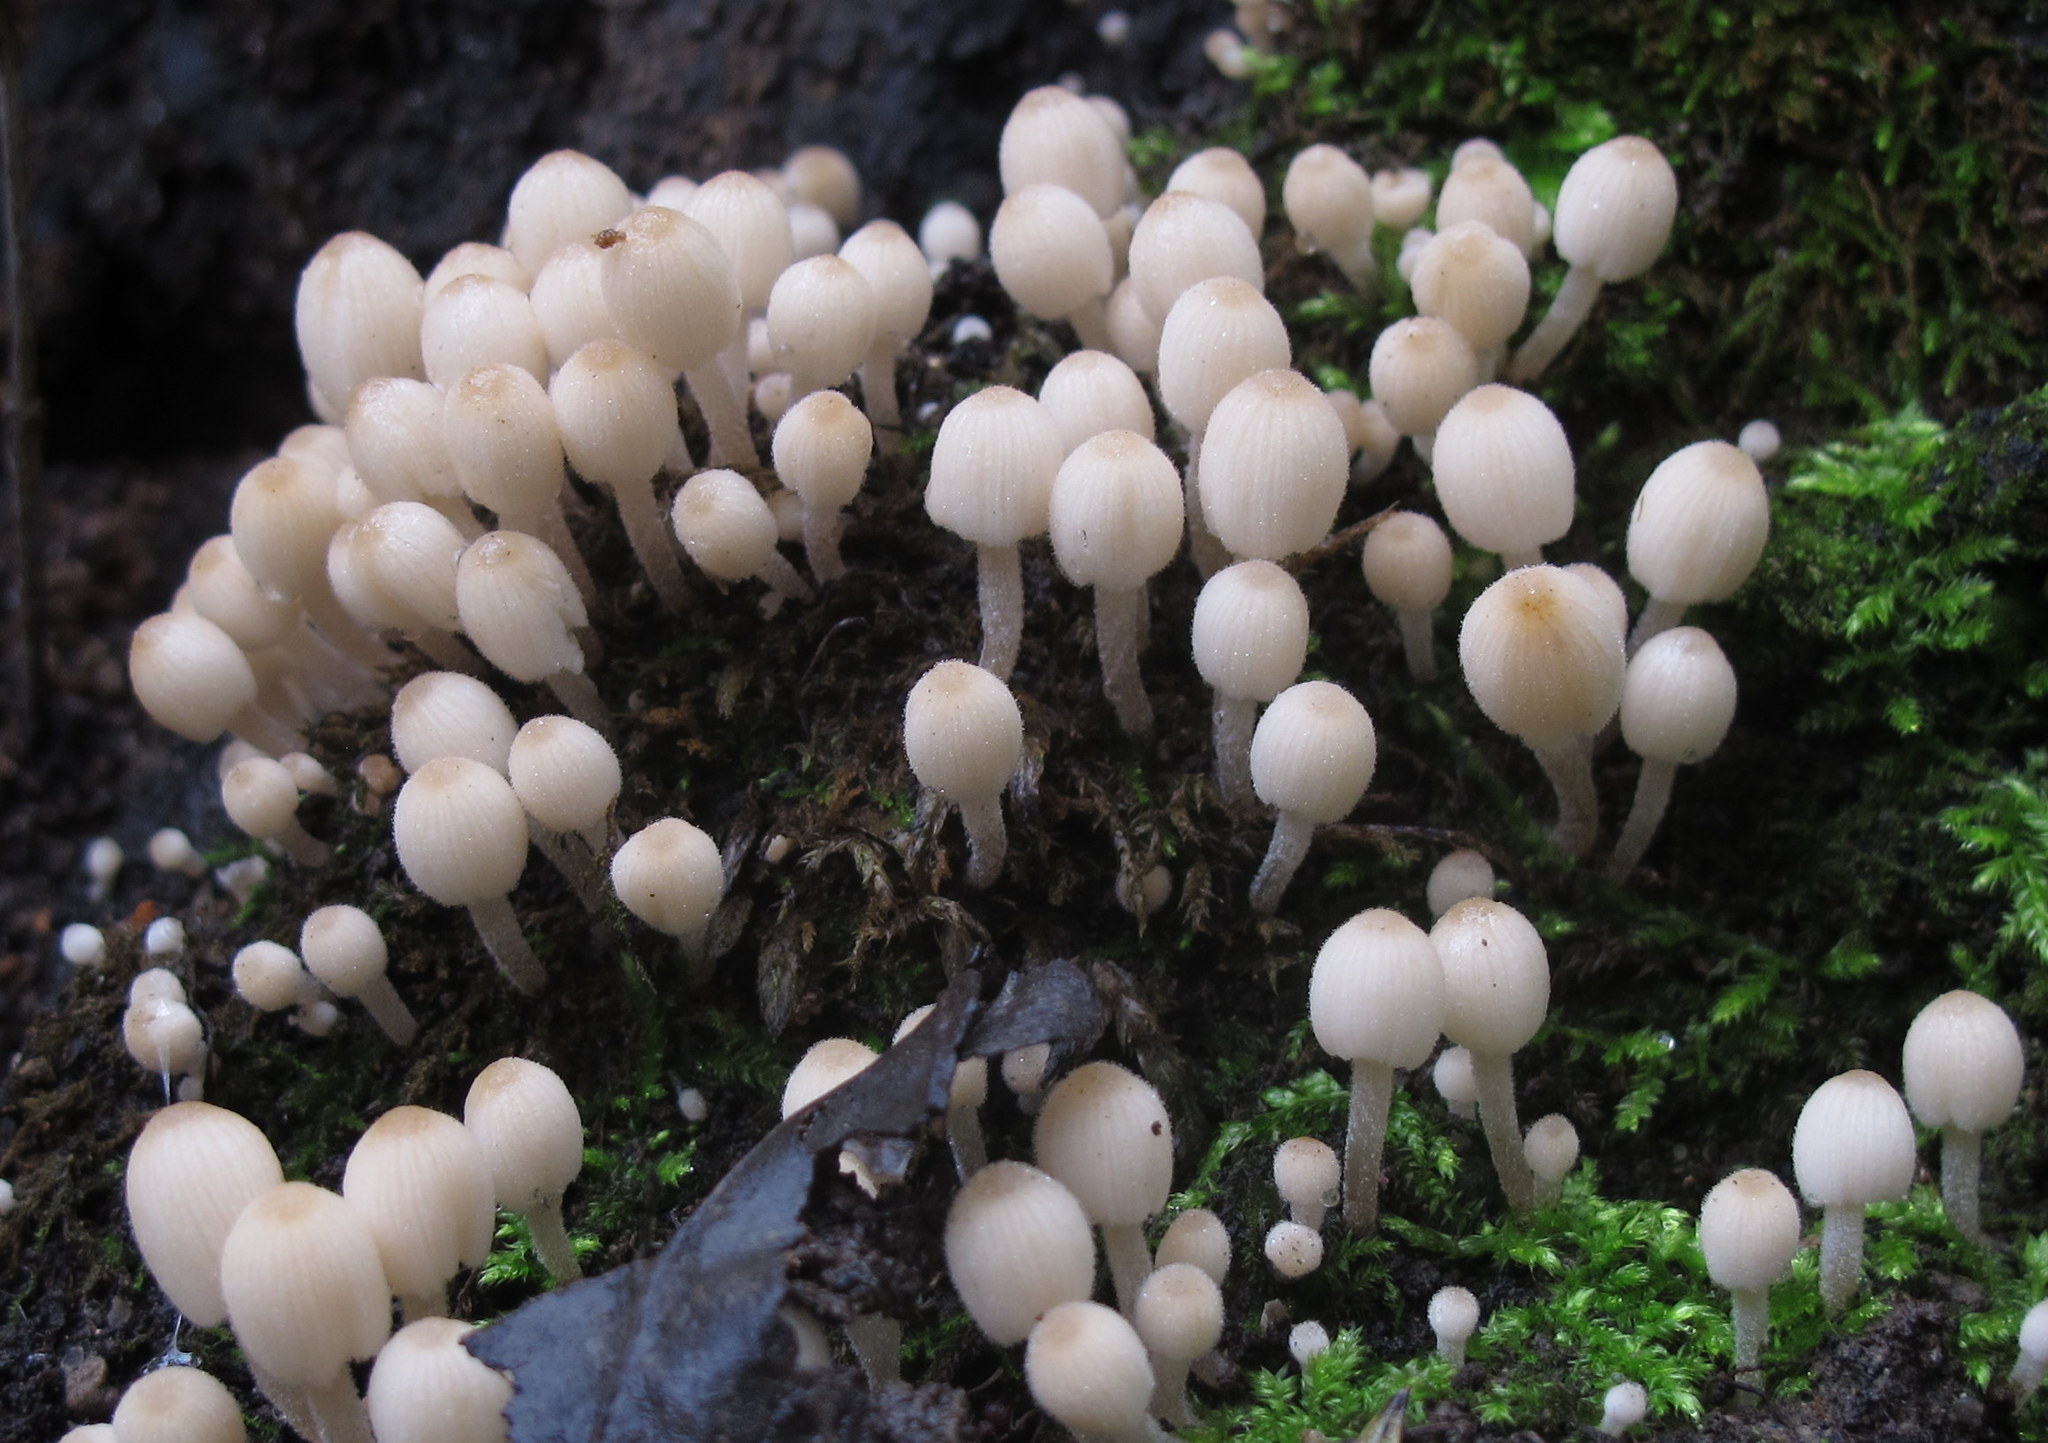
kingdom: Fungi
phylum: Basidiomycota
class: Agaricomycetes
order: Agaricales
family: Psathyrellaceae
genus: Coprinellus
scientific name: Coprinellus disseminatus
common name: Fairies' bonnets
